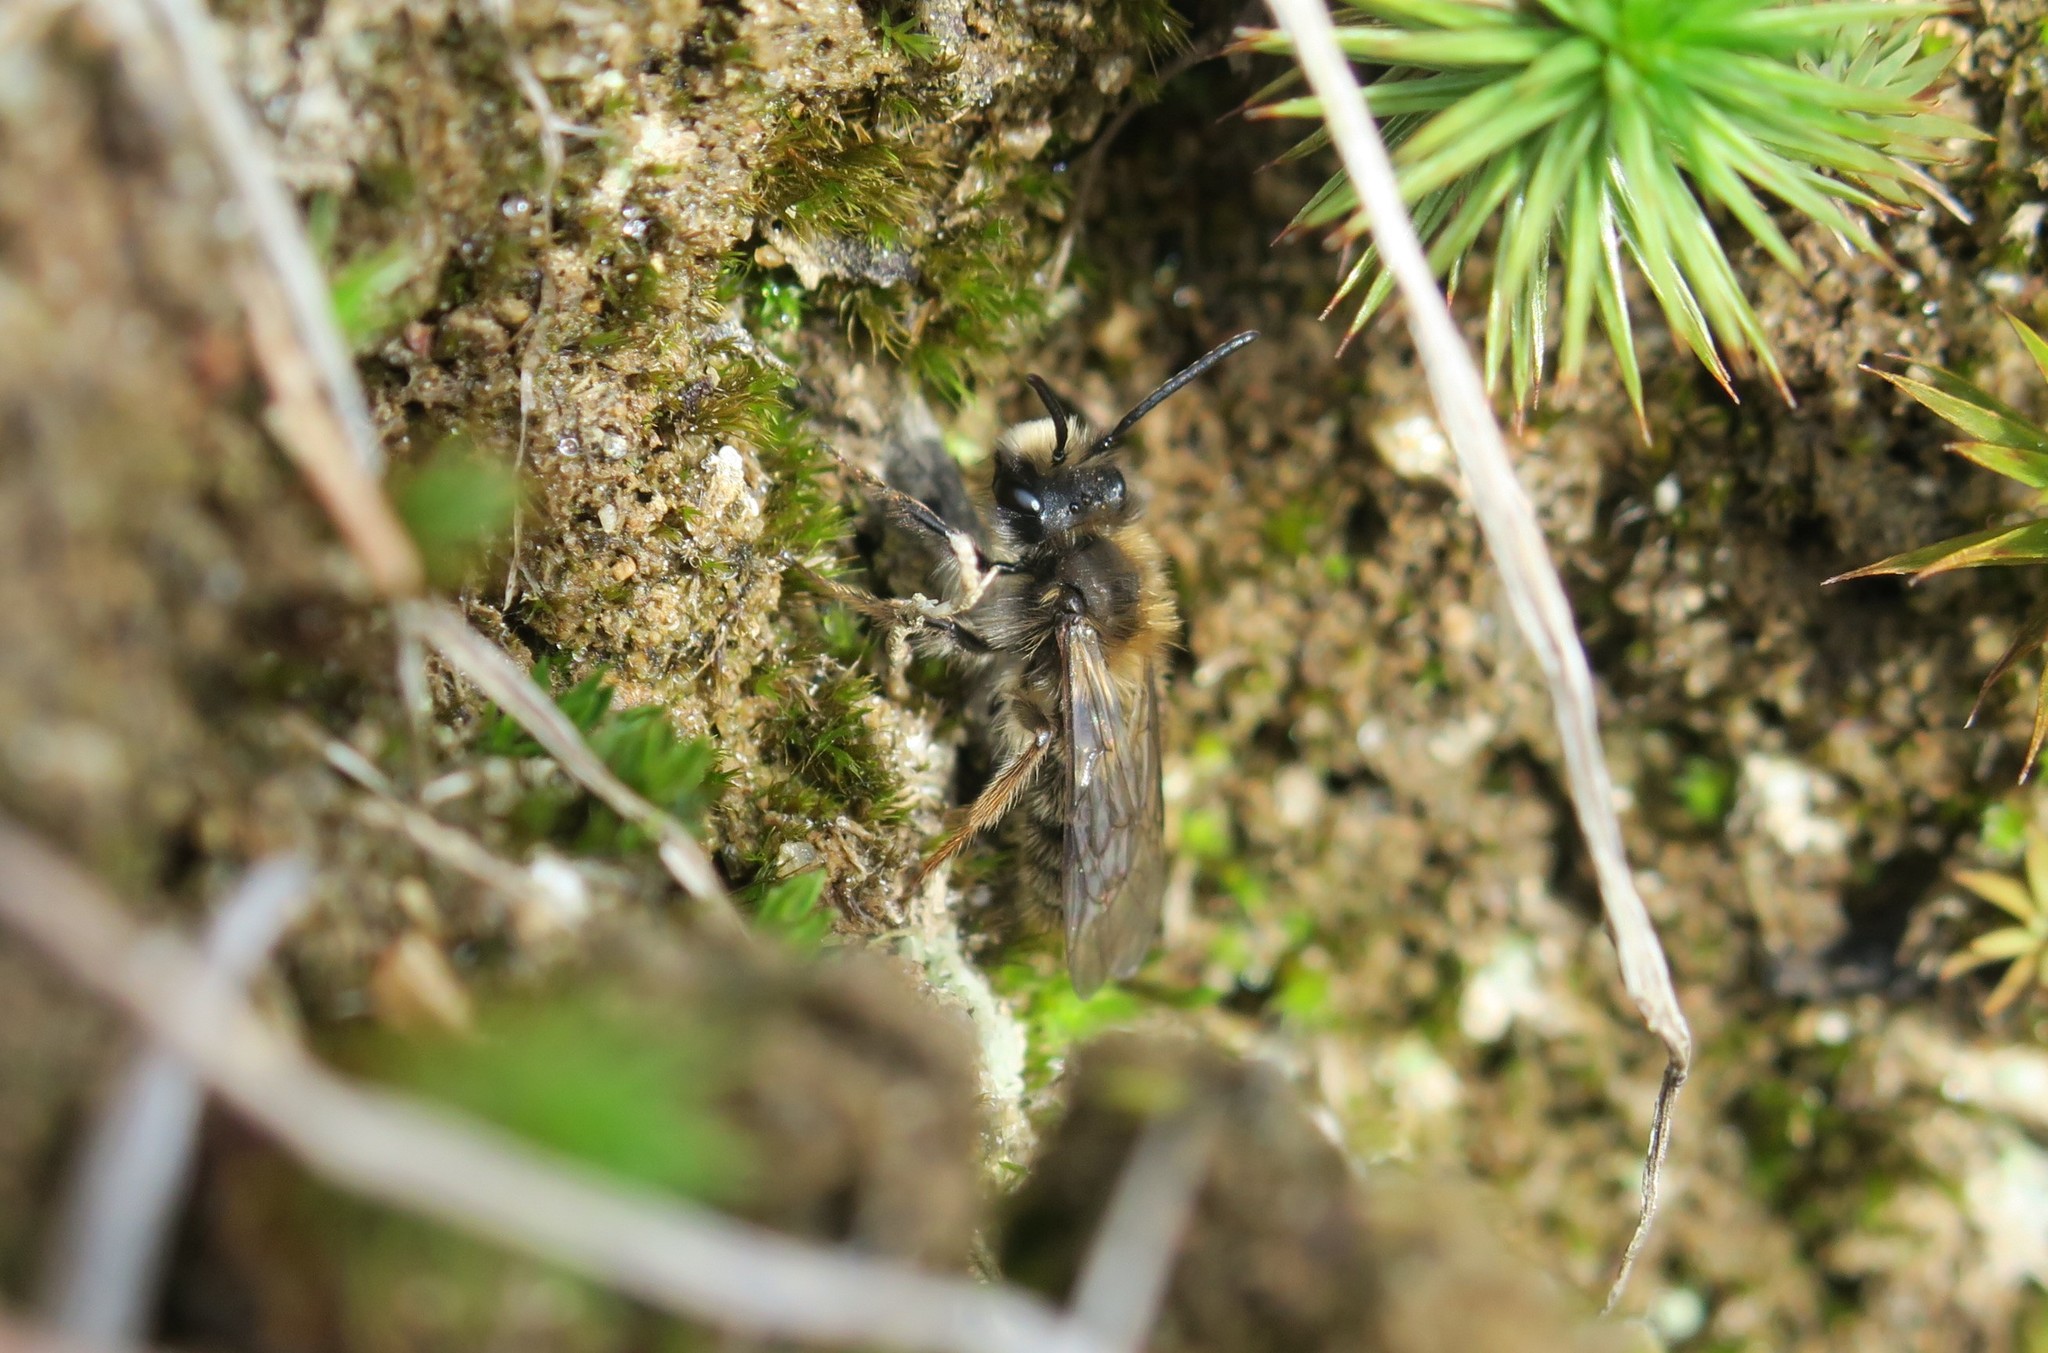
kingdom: Animalia
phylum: Arthropoda
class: Insecta
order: Hymenoptera
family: Andrenidae
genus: Andrena
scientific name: Andrena clarkella
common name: Clarke's mining bee
